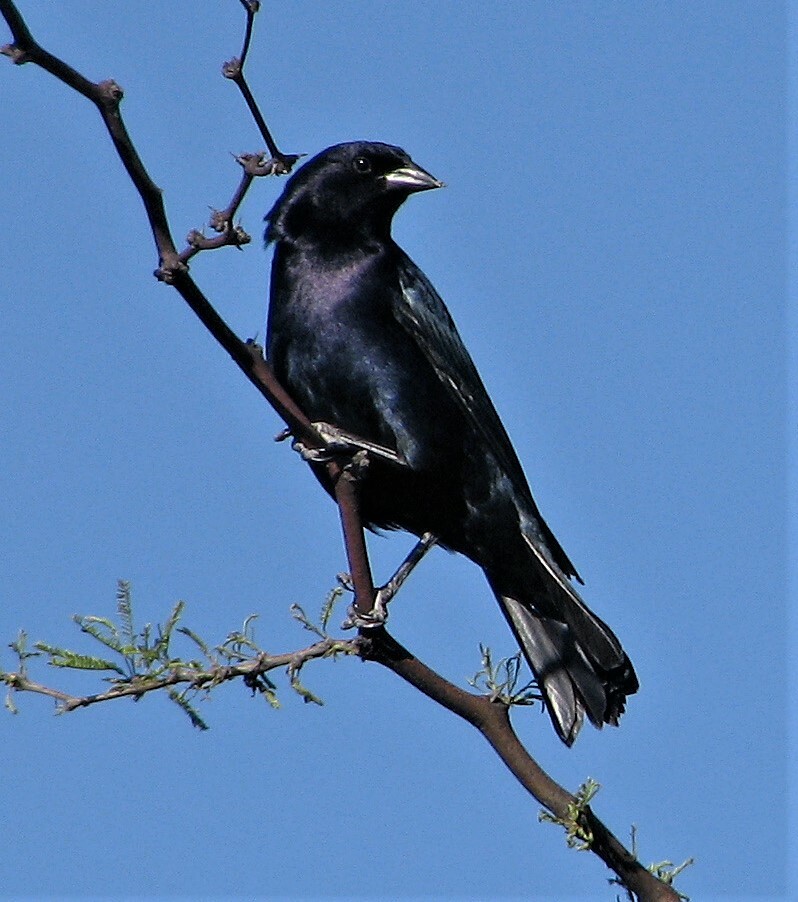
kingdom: Animalia
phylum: Chordata
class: Aves
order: Passeriformes
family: Icteridae
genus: Molothrus
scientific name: Molothrus bonariensis
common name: Shiny cowbird
